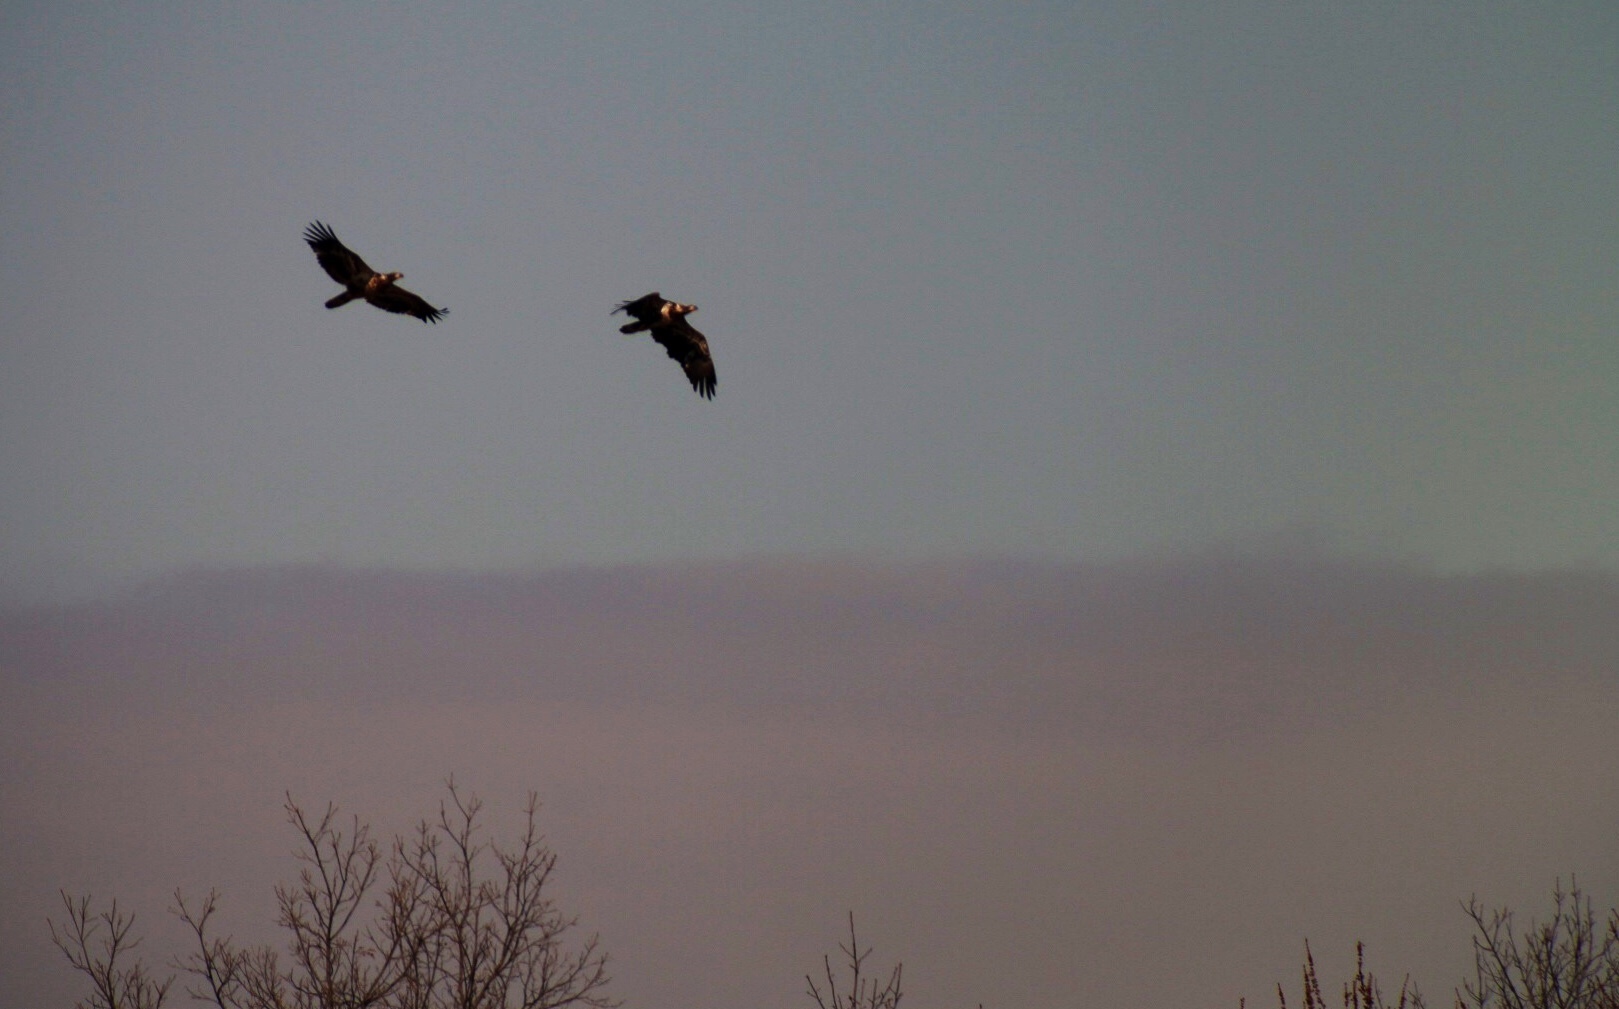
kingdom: Animalia
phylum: Chordata
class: Aves
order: Accipitriformes
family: Accipitridae
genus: Haliaeetus
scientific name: Haliaeetus leucocephalus
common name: Bald eagle
